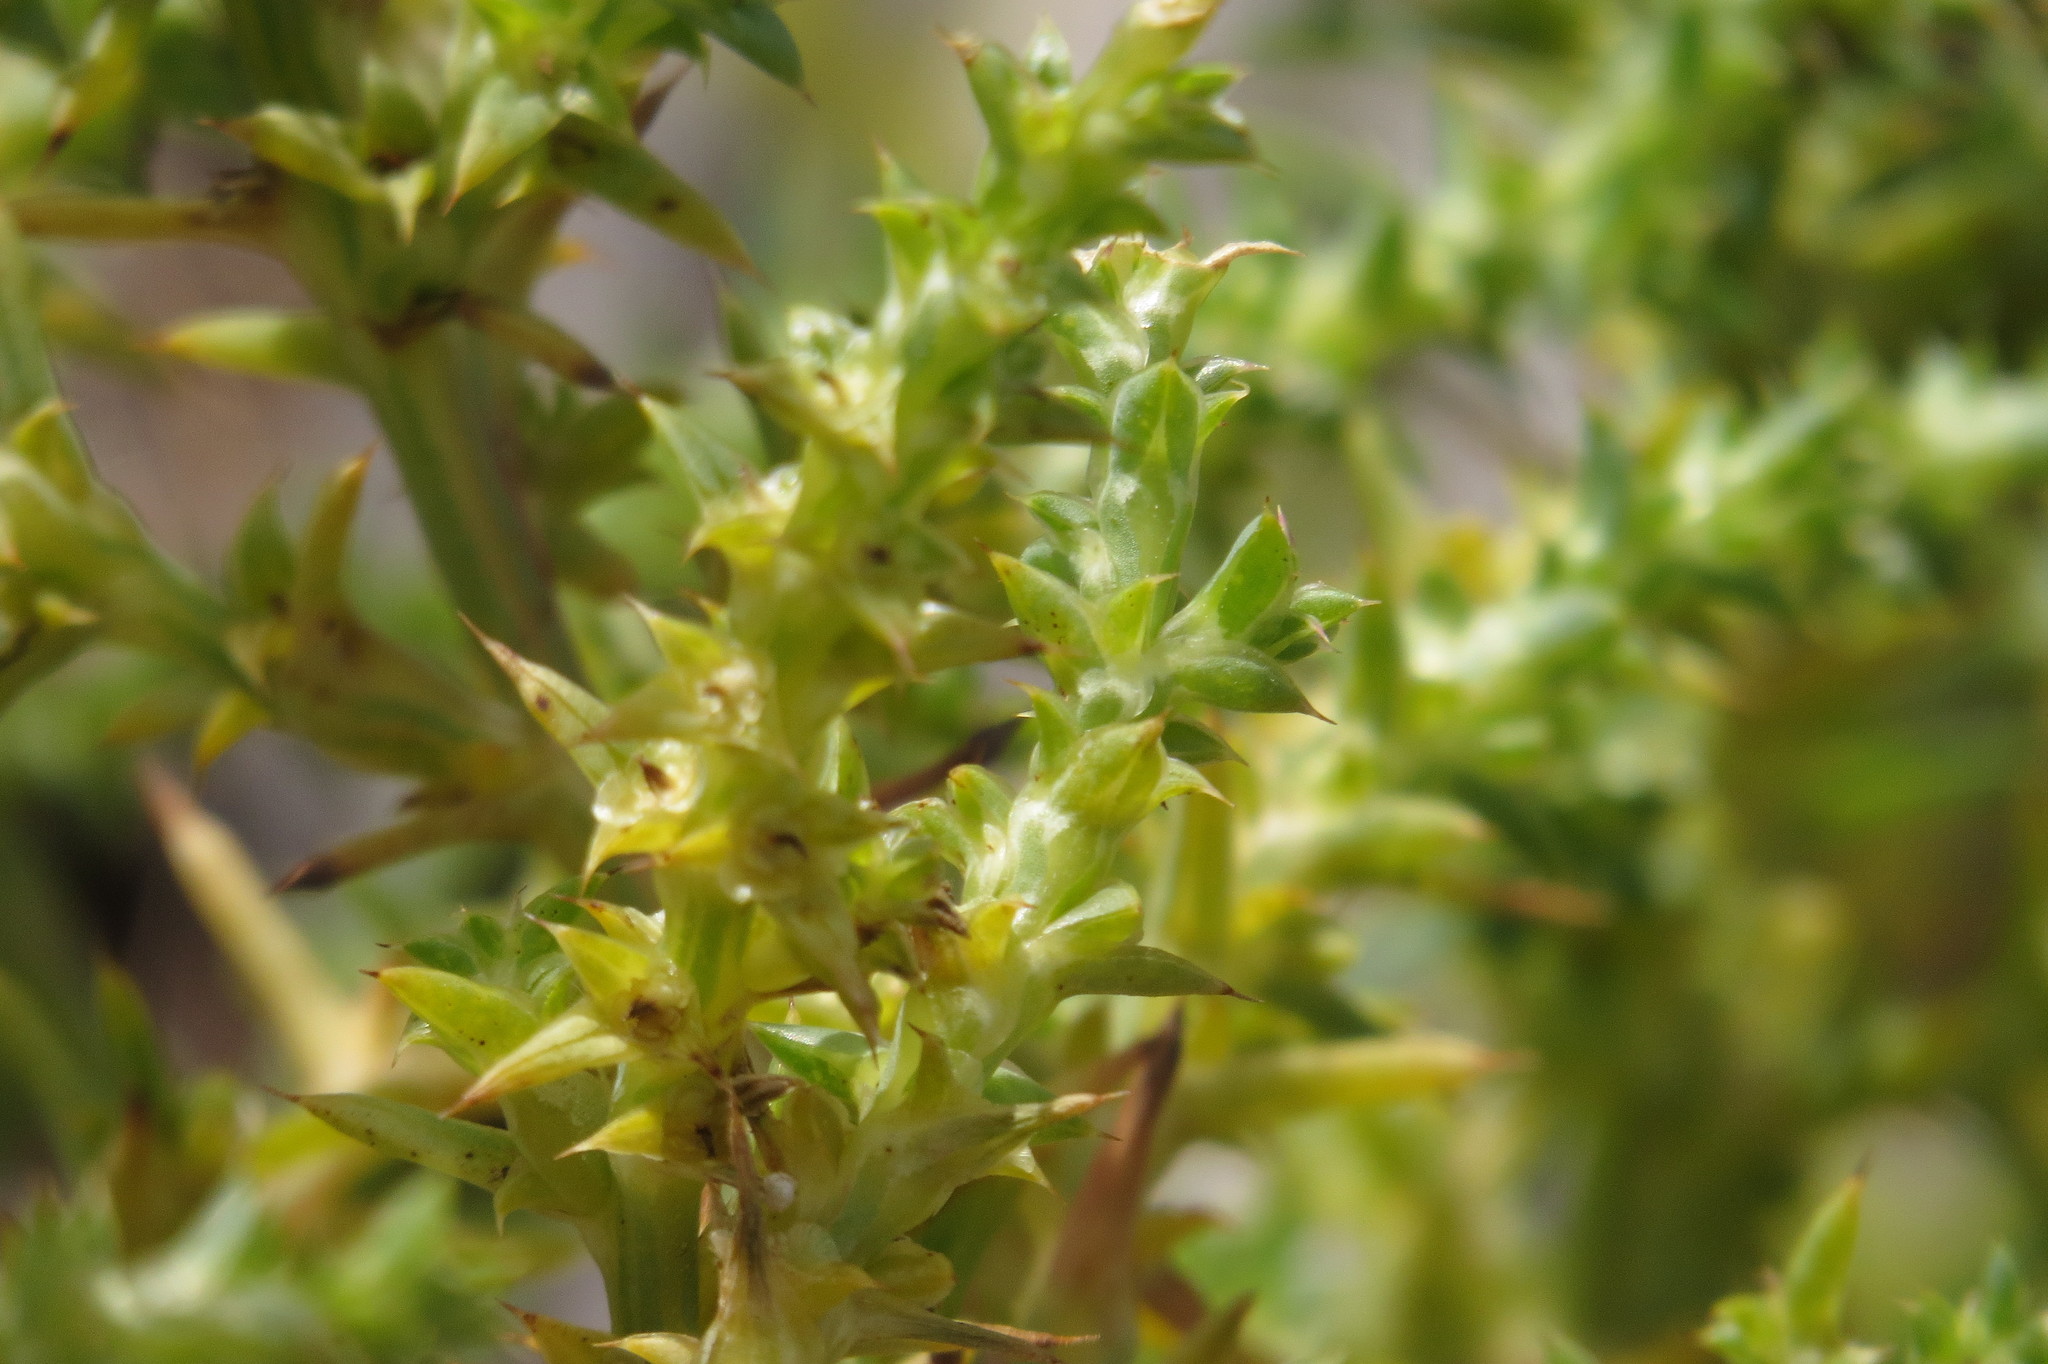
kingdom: Plantae
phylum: Tracheophyta
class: Magnoliopsida
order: Caryophyllales
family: Amaranthaceae
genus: Salsola
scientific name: Salsola australis
